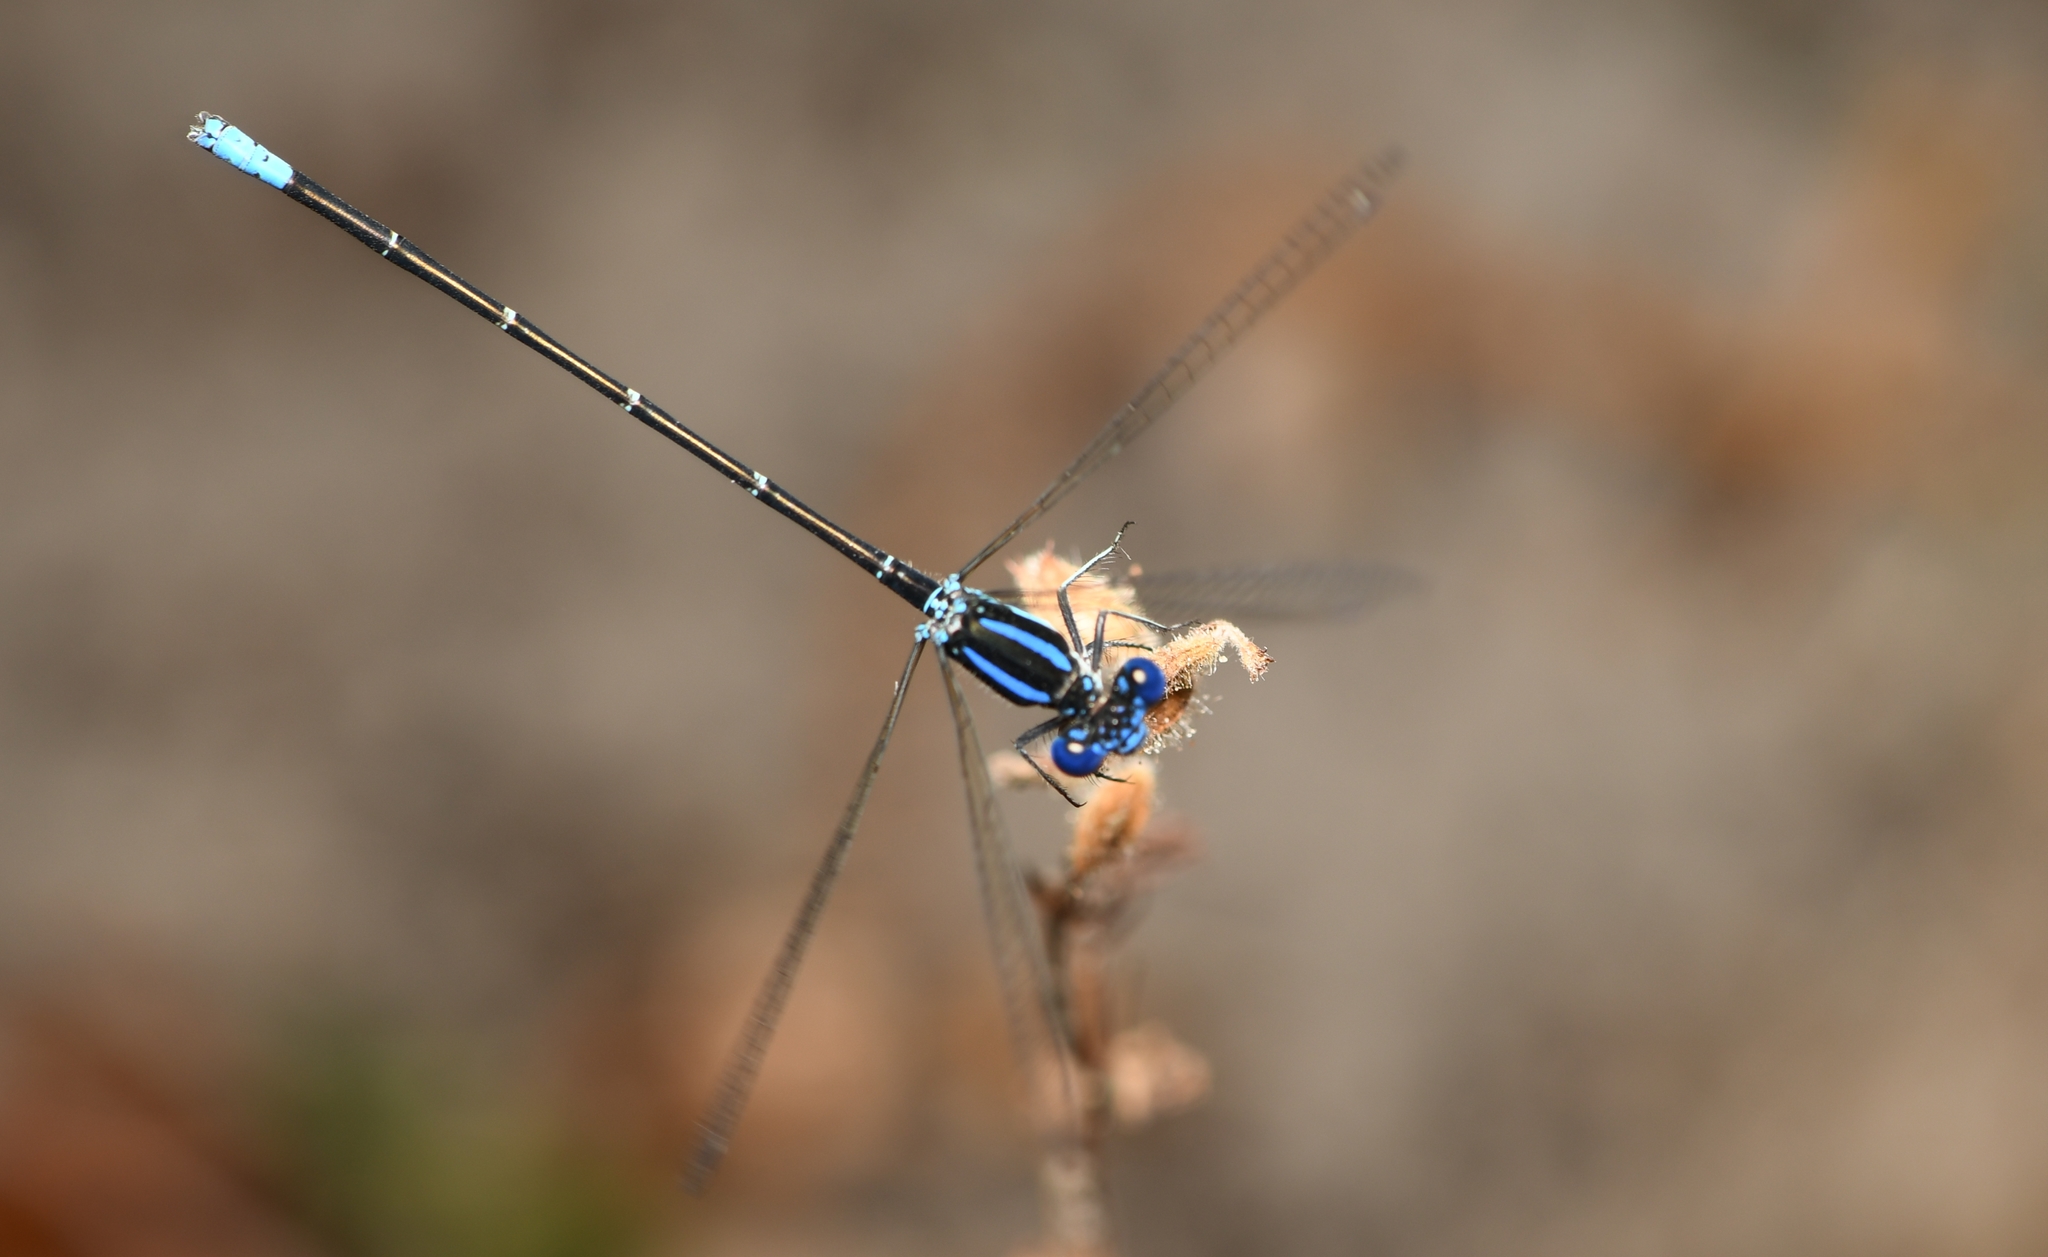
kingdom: Animalia
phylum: Arthropoda
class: Insecta
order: Odonata
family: Coenagrionidae
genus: Argia
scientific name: Argia sedula
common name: Blue-ringed dancer
